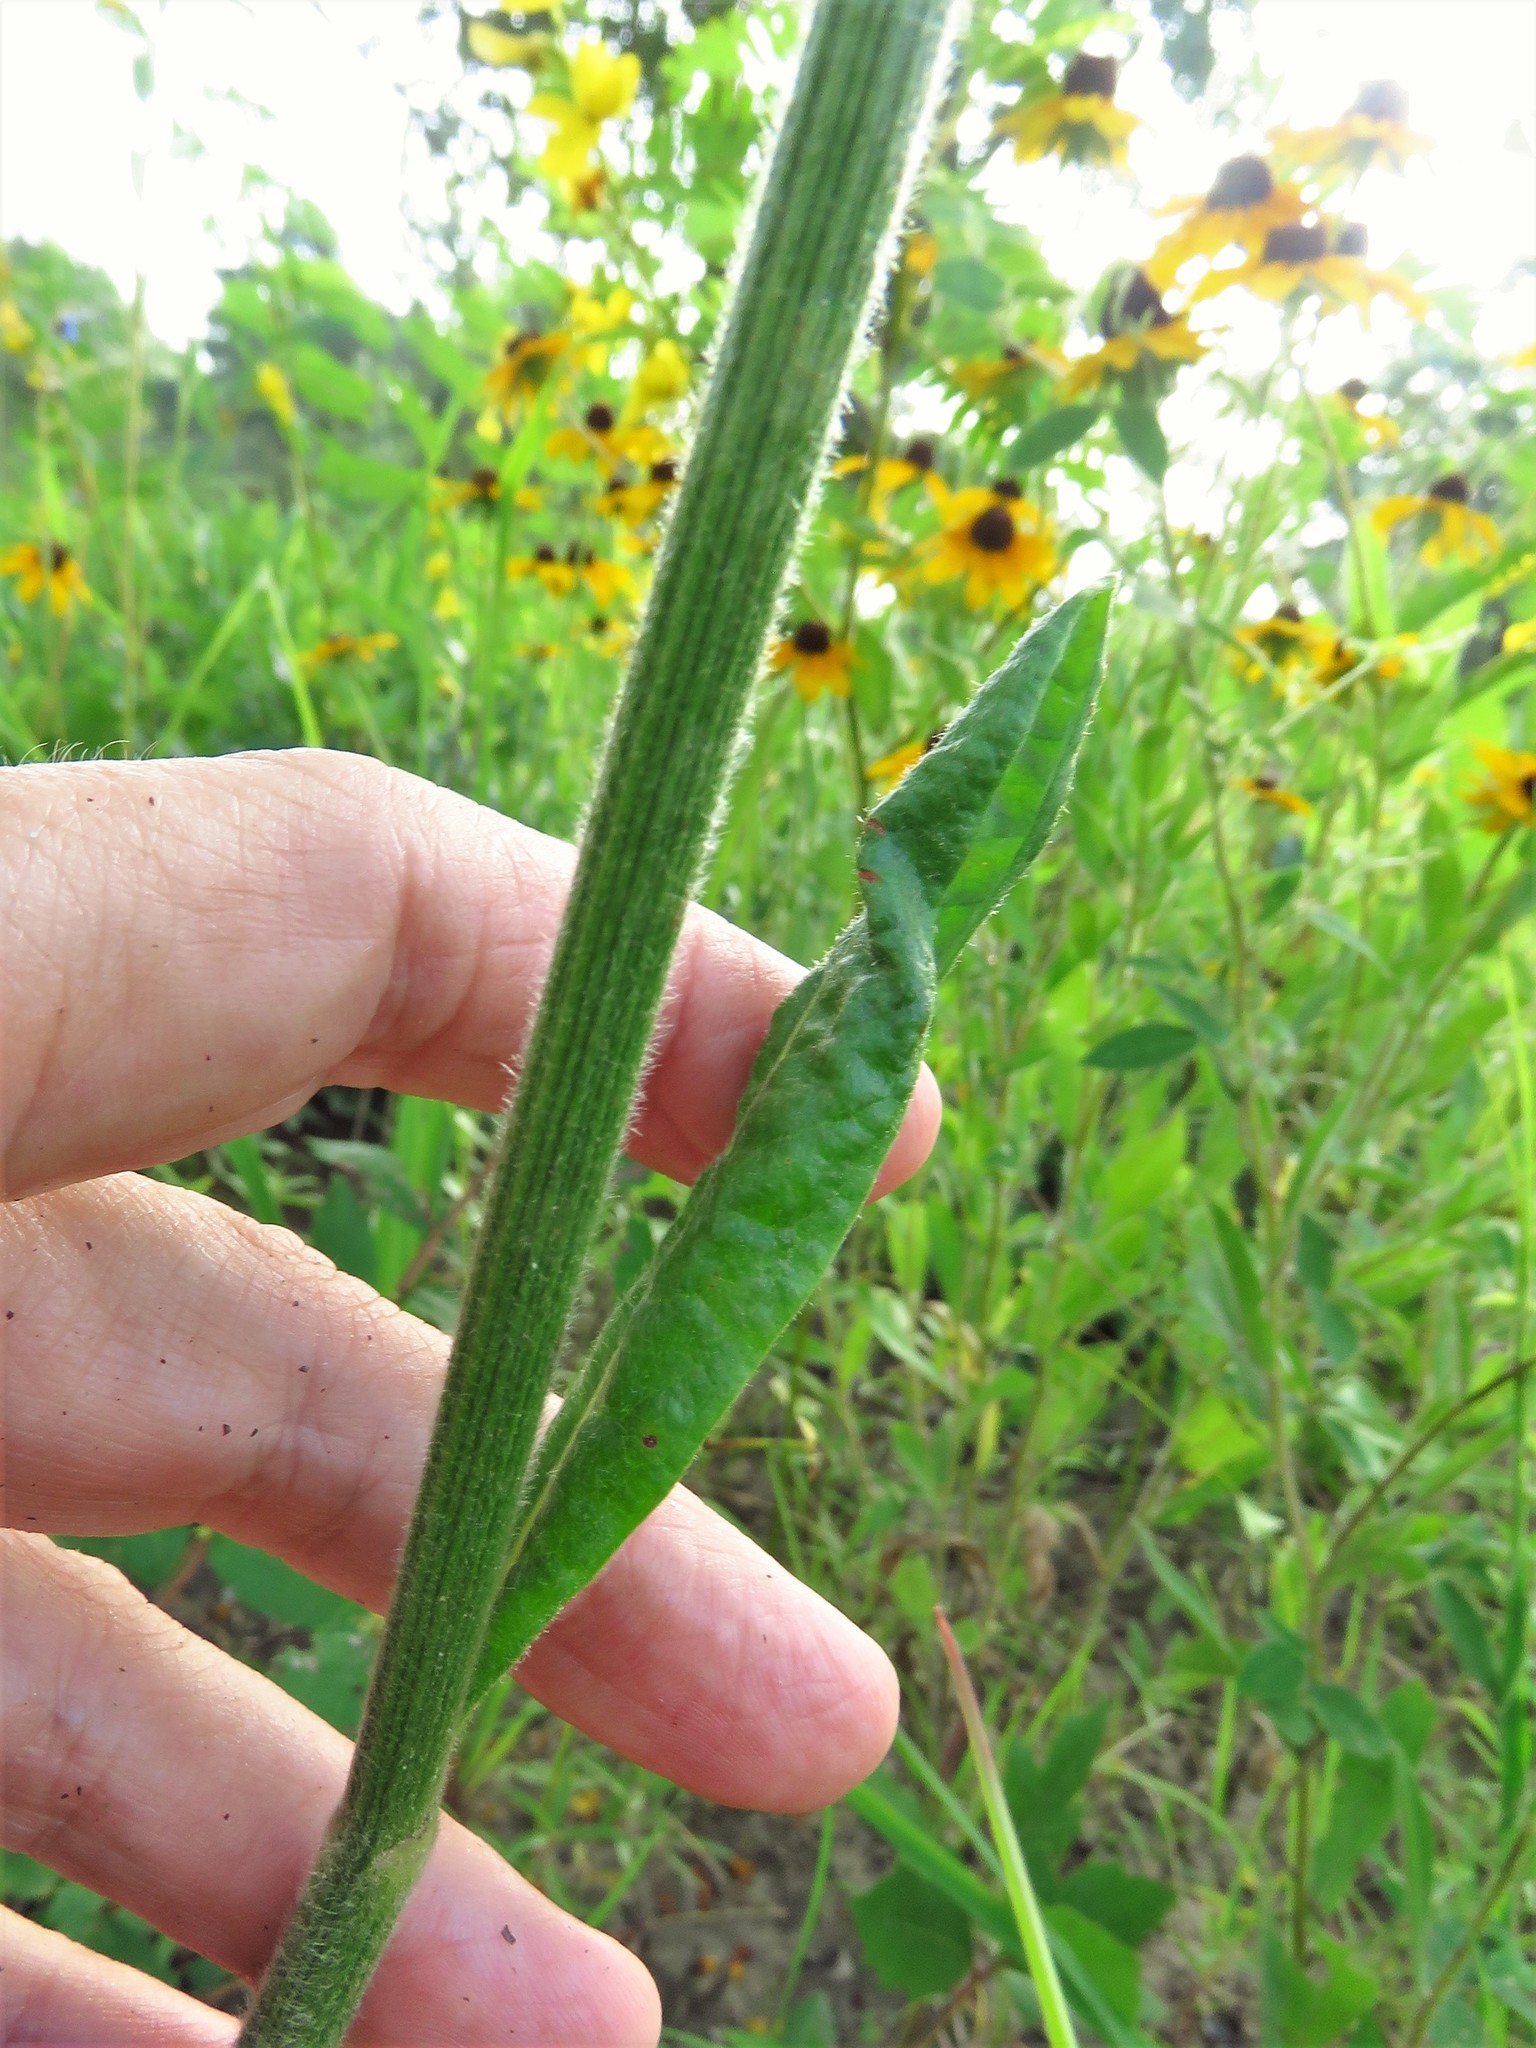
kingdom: Plantae
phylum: Tracheophyta
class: Magnoliopsida
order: Caryophyllales
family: Polygonaceae
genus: Eriogonum
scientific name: Eriogonum longifolium
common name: Longleaf wild buckwheat
